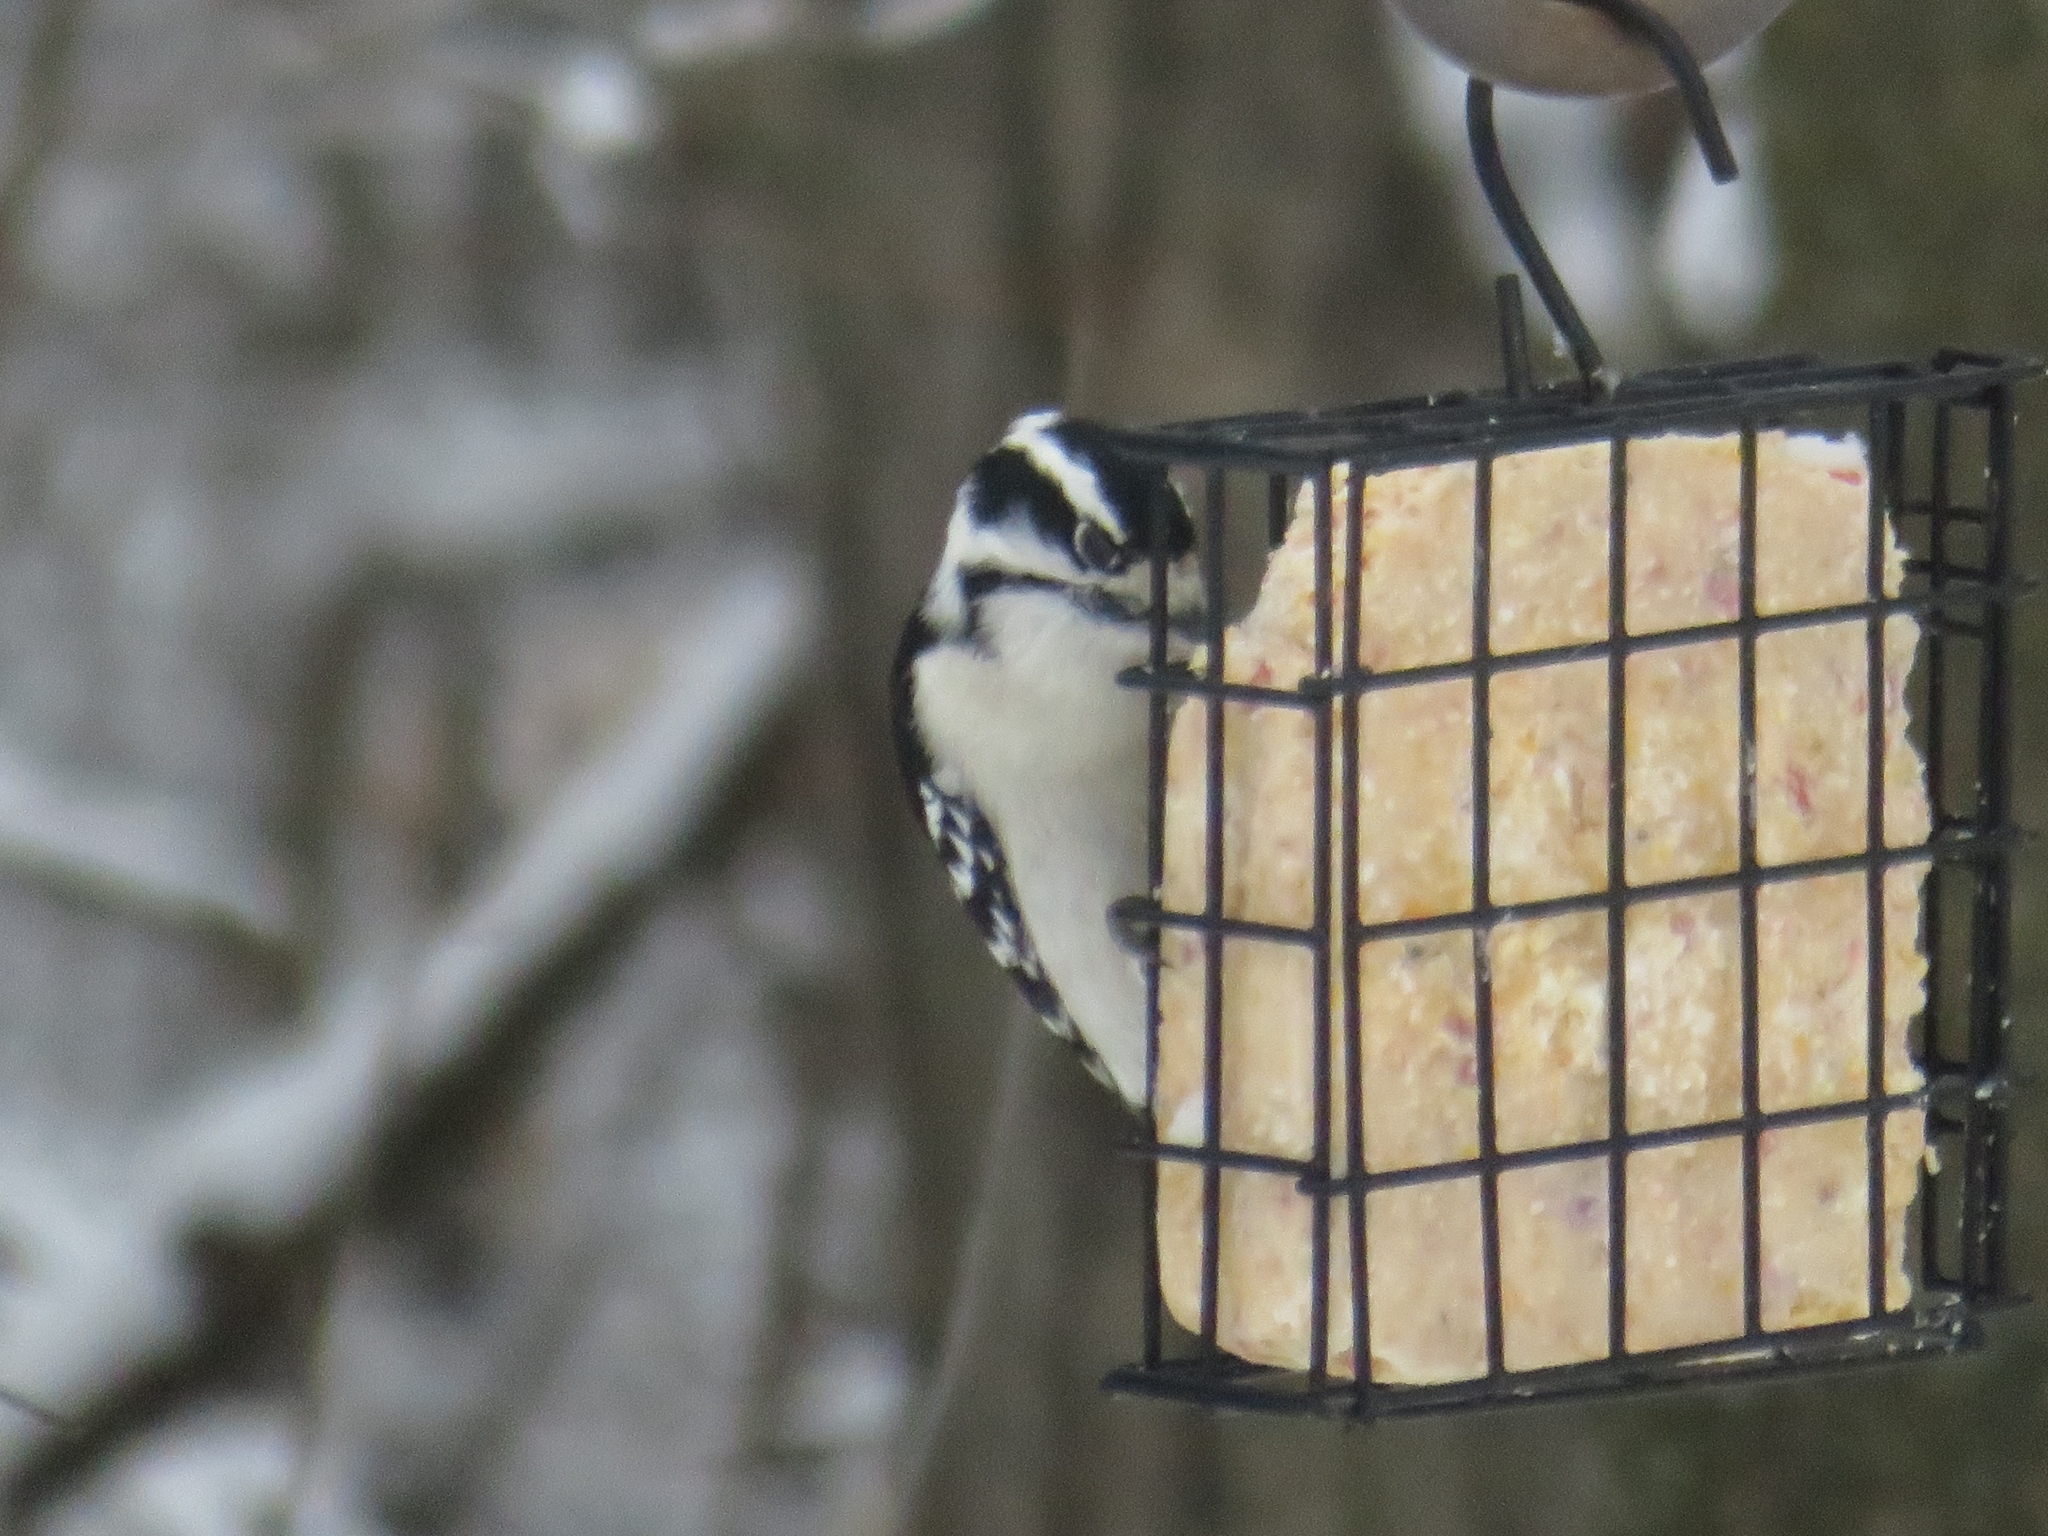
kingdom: Animalia
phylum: Chordata
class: Aves
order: Piciformes
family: Picidae
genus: Dryobates
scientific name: Dryobates pubescens
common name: Downy woodpecker
